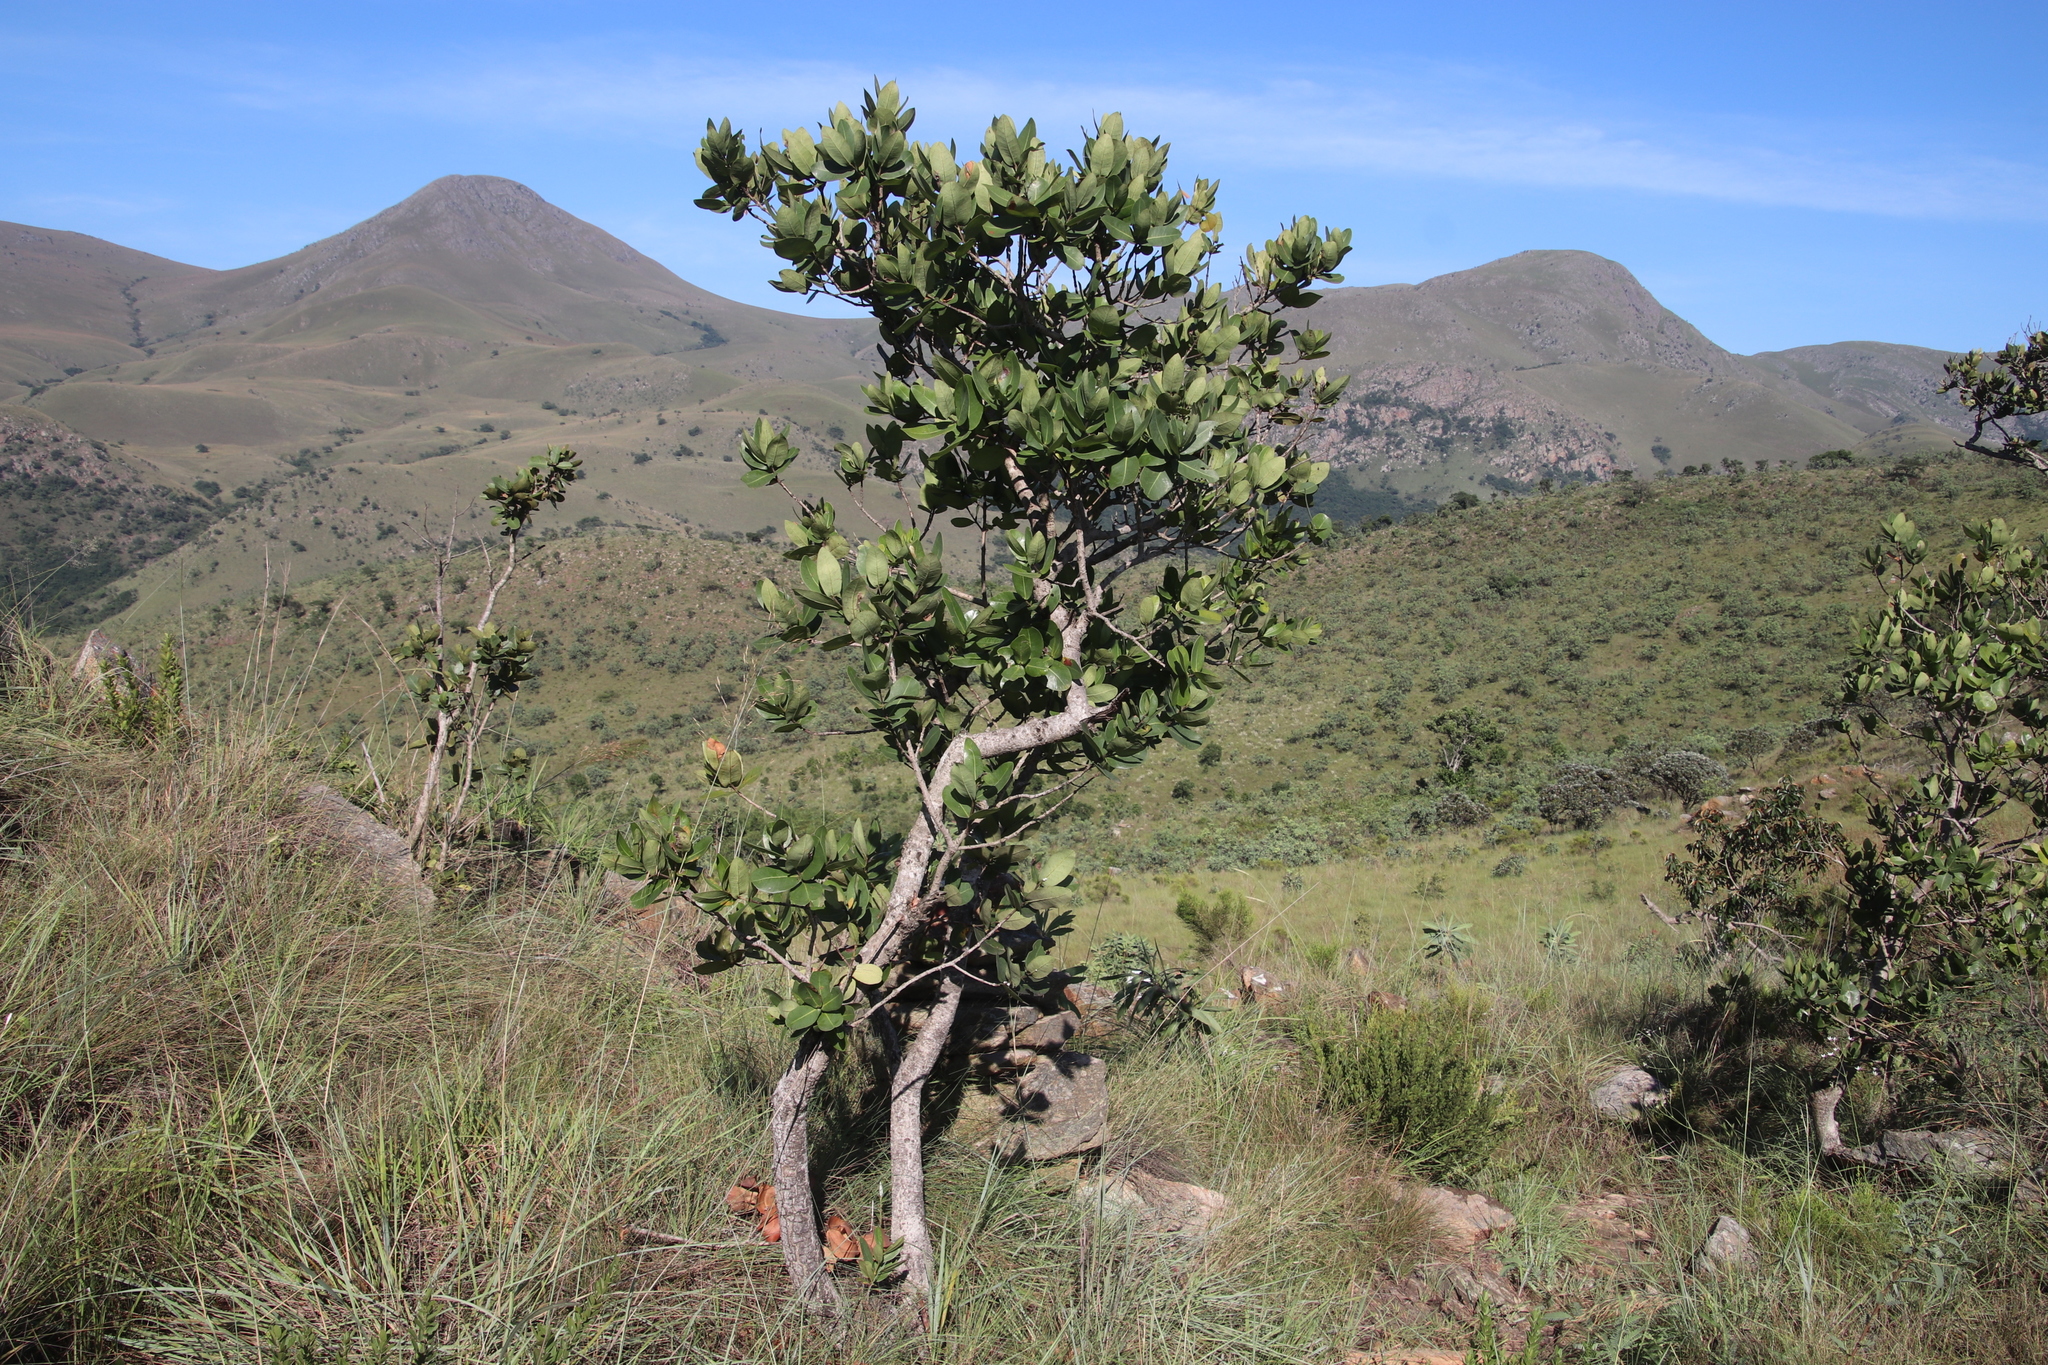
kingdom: Plantae
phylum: Tracheophyta
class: Magnoliopsida
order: Myrtales
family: Myrtaceae
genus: Syzygium
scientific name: Syzygium cordatum
